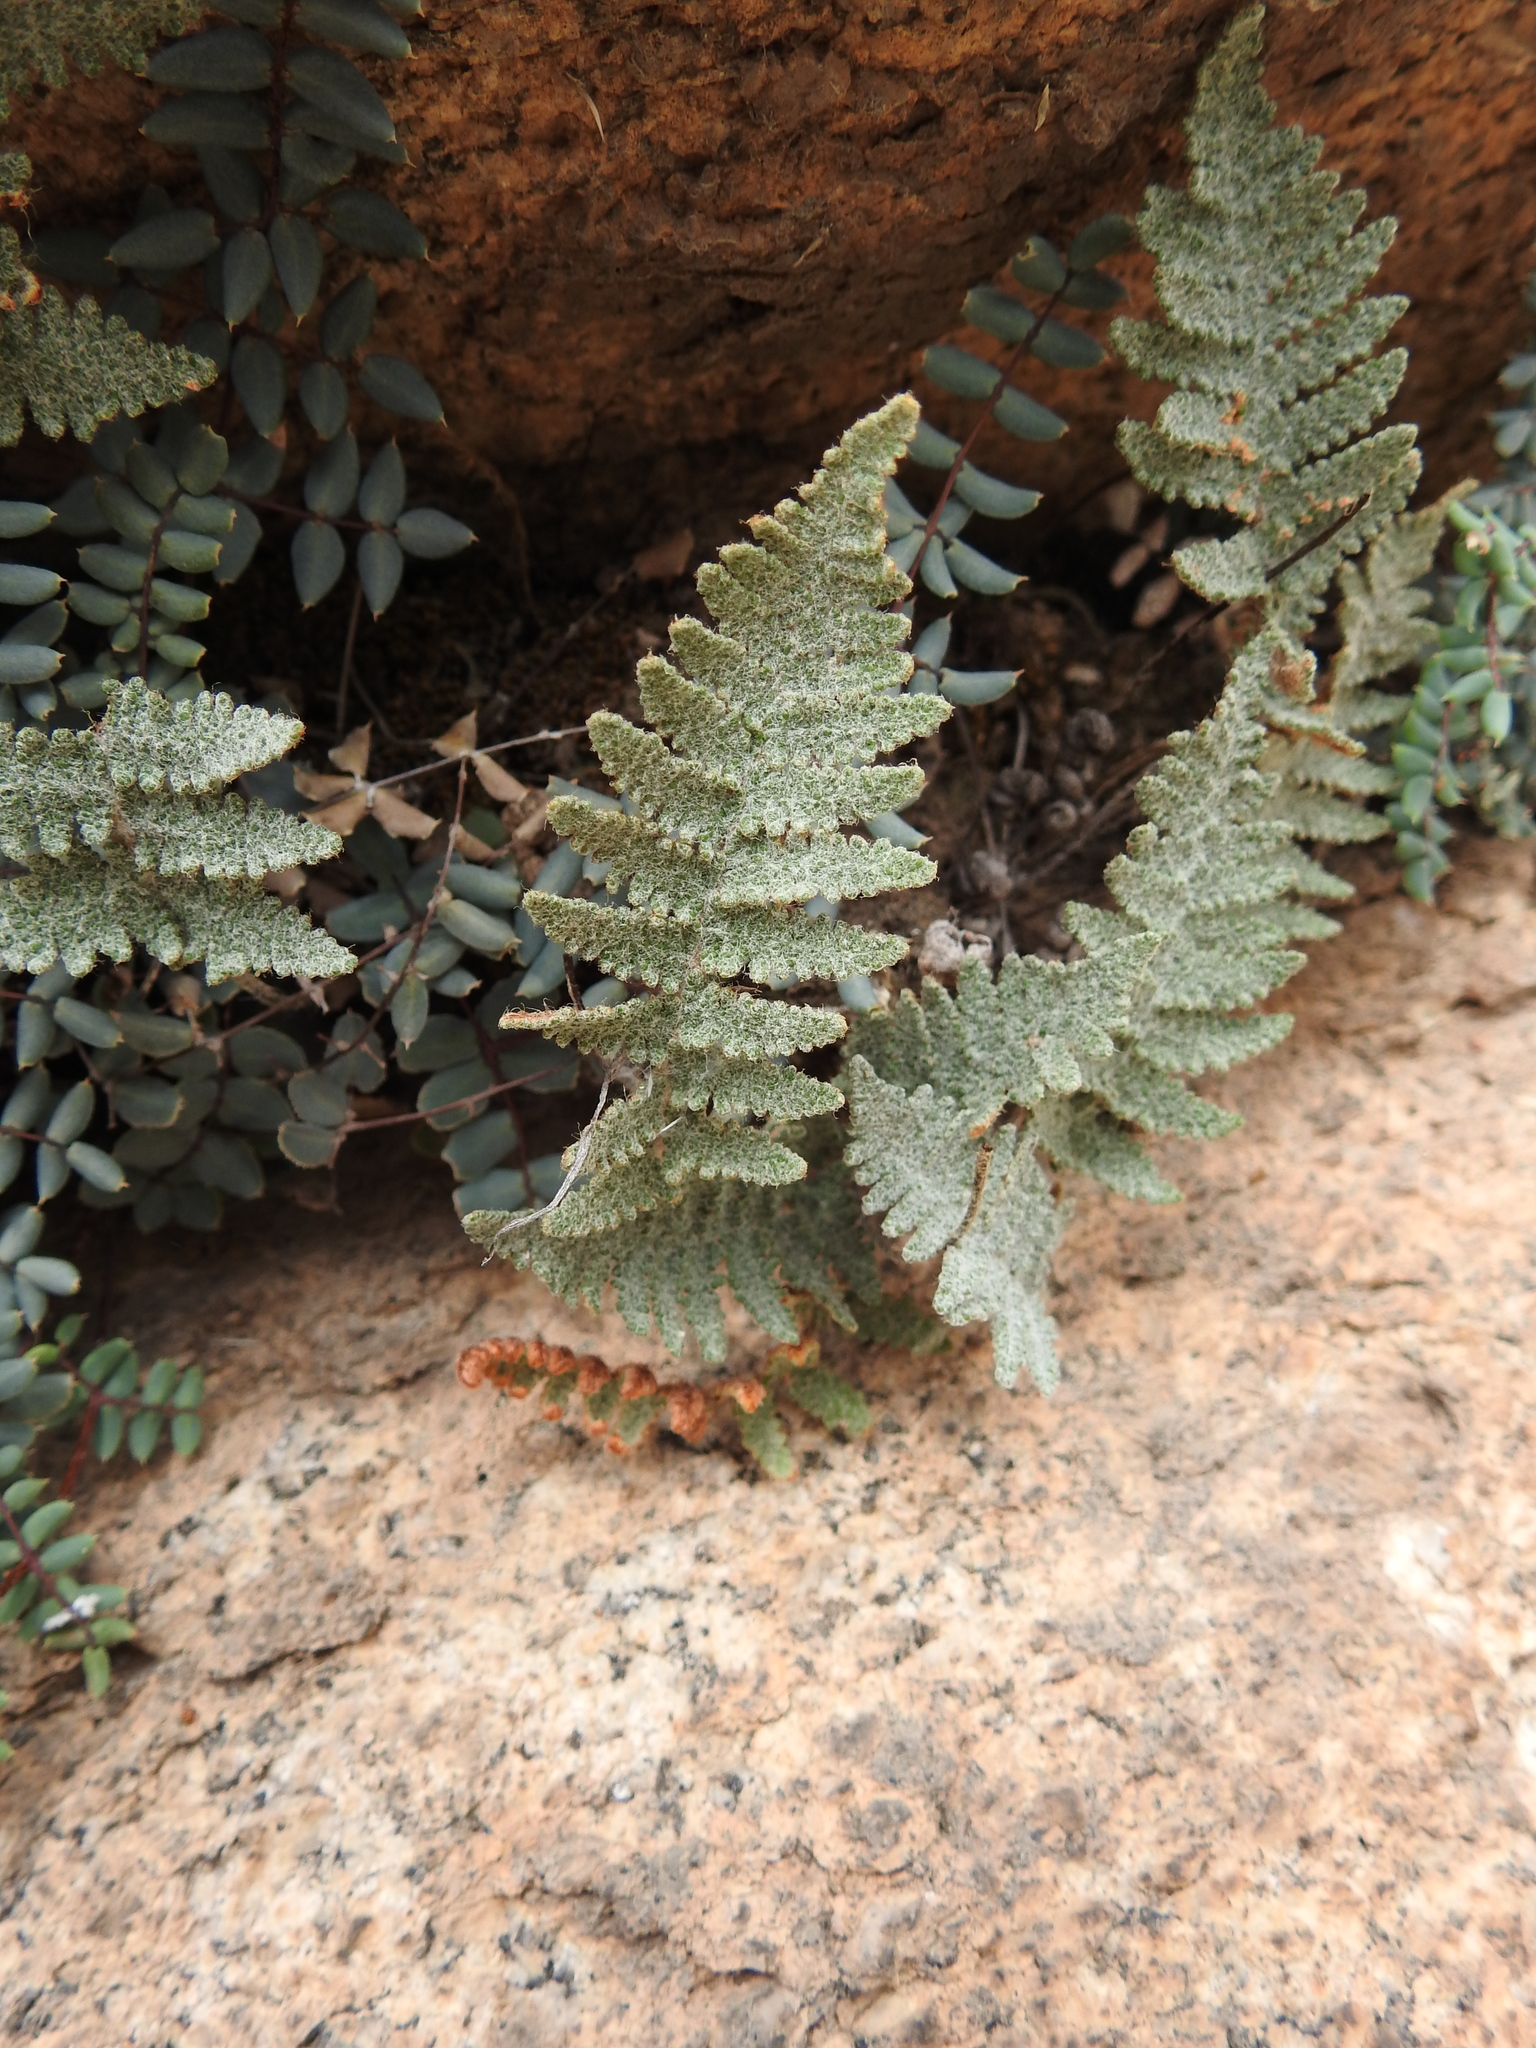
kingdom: Plantae
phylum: Tracheophyta
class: Polypodiopsida
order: Polypodiales
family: Pteridaceae
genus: Myriopteris
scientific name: Myriopteris lindheimeri
